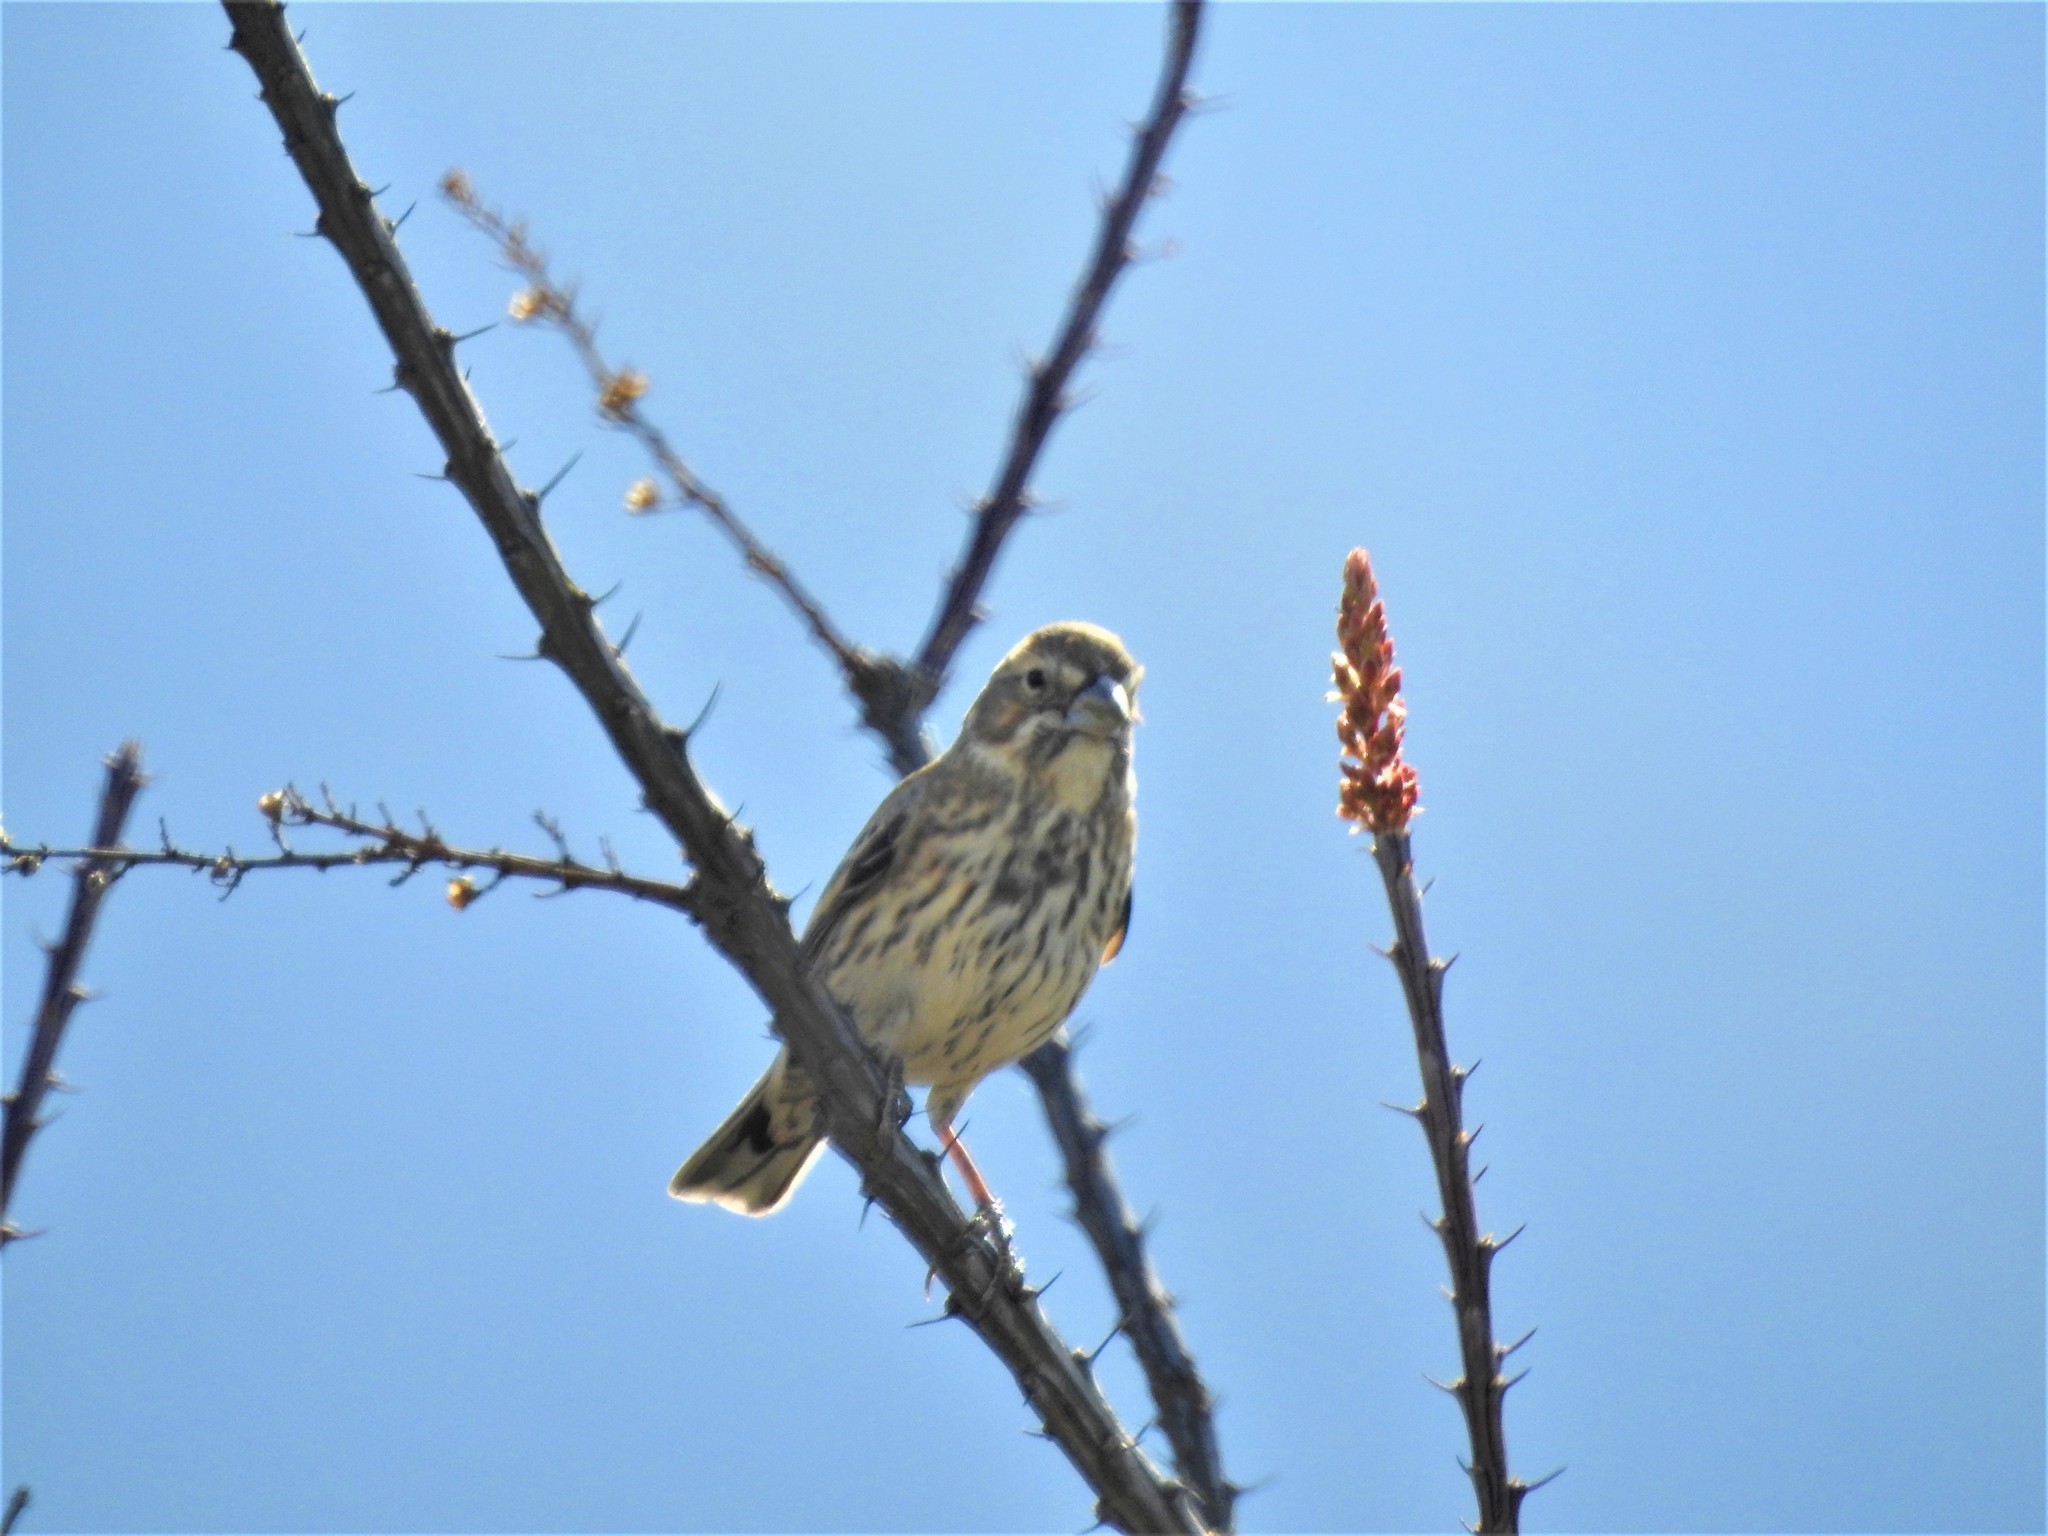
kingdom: Animalia
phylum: Chordata
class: Aves
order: Passeriformes
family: Passerellidae
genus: Calamospiza
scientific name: Calamospiza melanocorys
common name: Lark bunting
